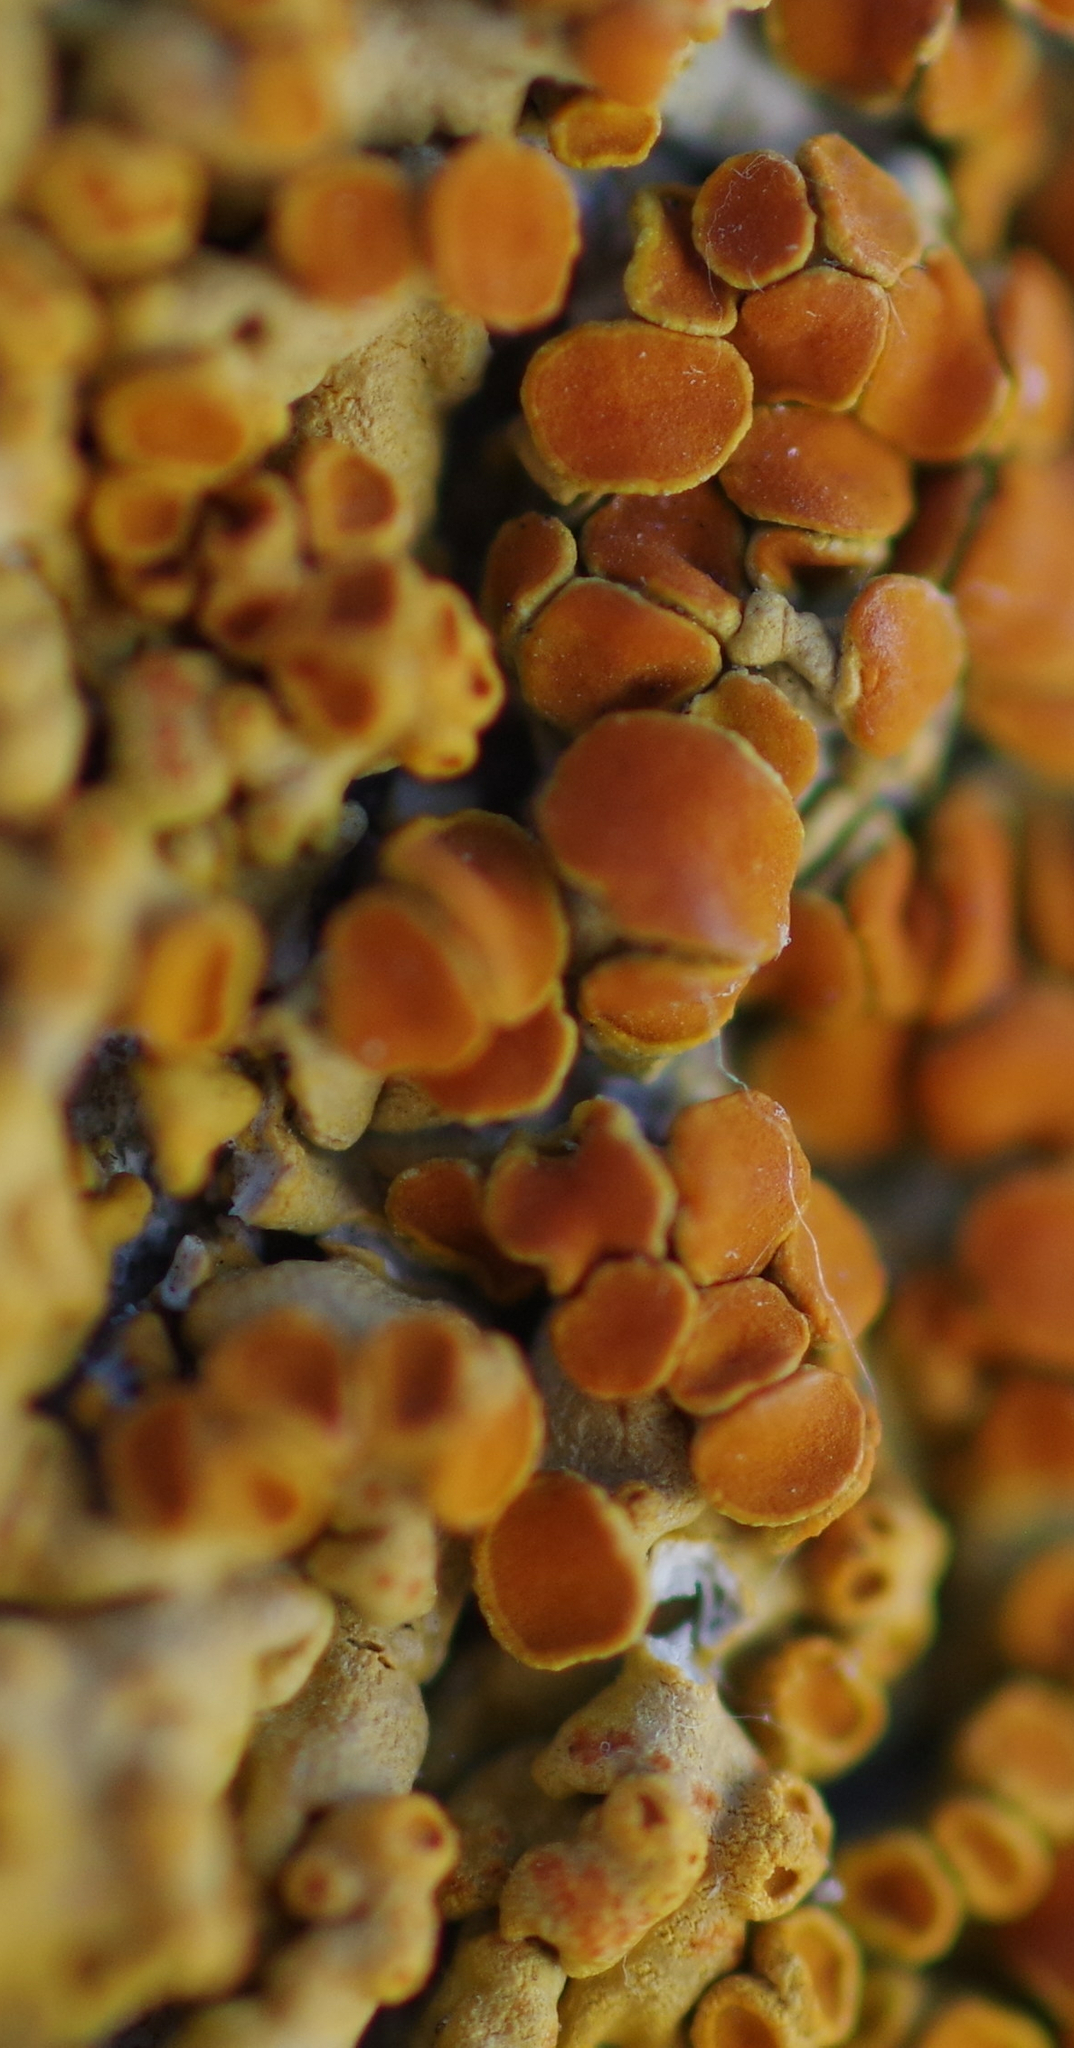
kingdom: Fungi
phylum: Ascomycota
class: Lecanoromycetes
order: Teloschistales
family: Teloschistaceae
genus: Xanthoria
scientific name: Xanthoria elegans
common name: Elegant sunburst lichen
